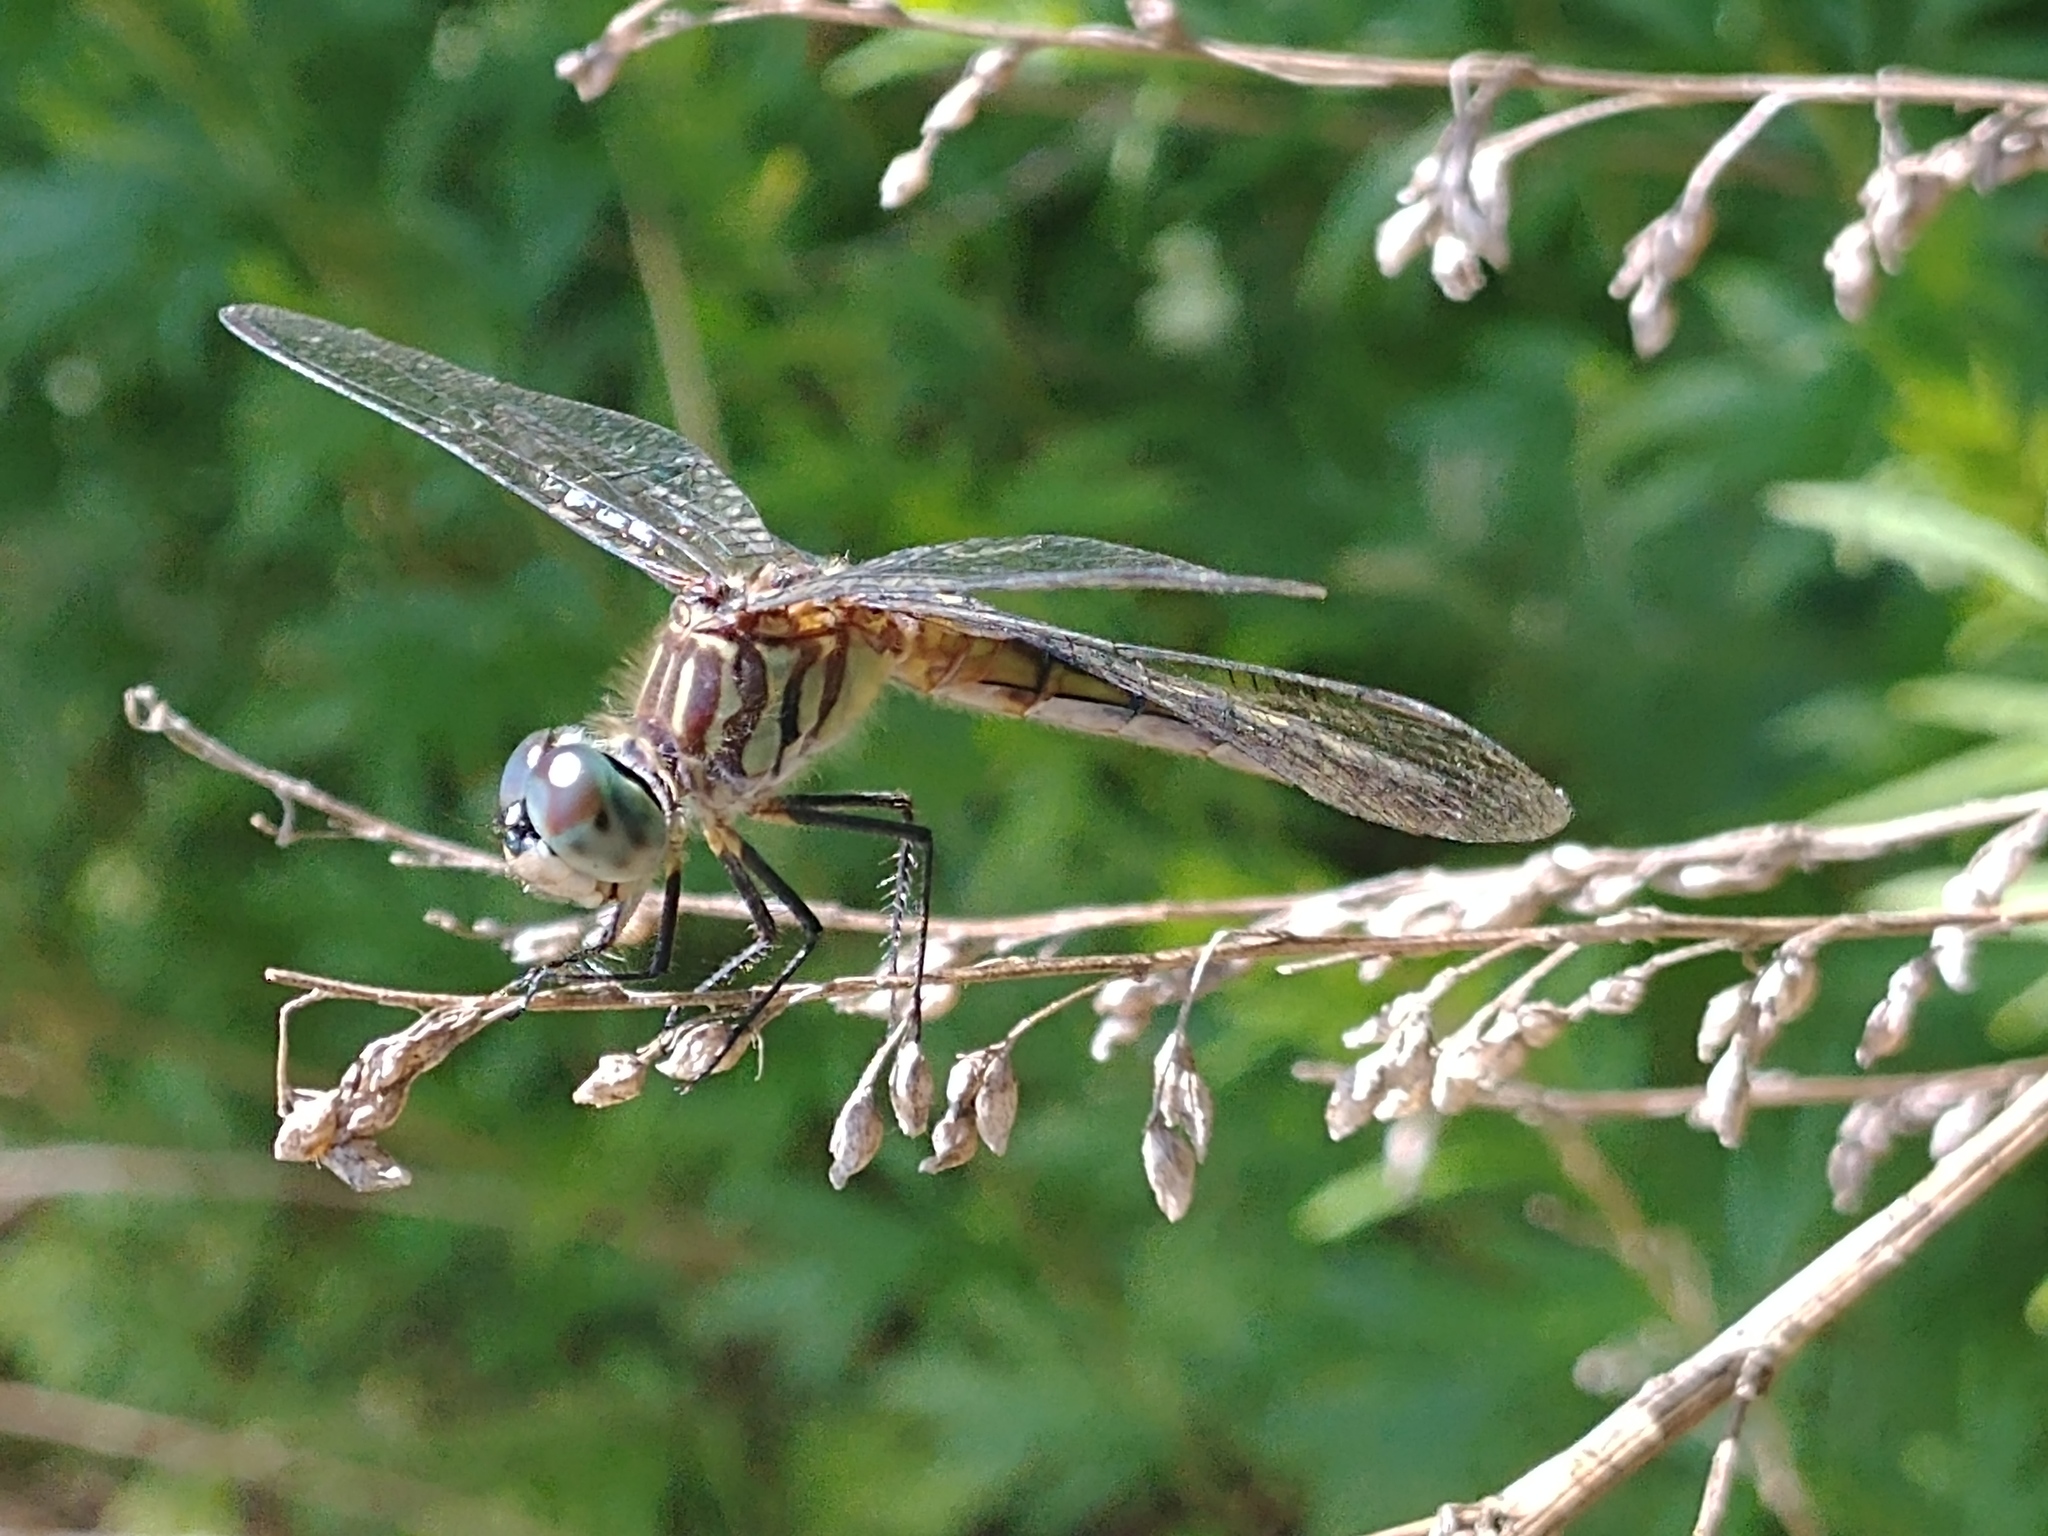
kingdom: Animalia
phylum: Arthropoda
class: Insecta
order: Odonata
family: Libellulidae
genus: Pachydiplax
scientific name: Pachydiplax longipennis
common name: Blue dasher
